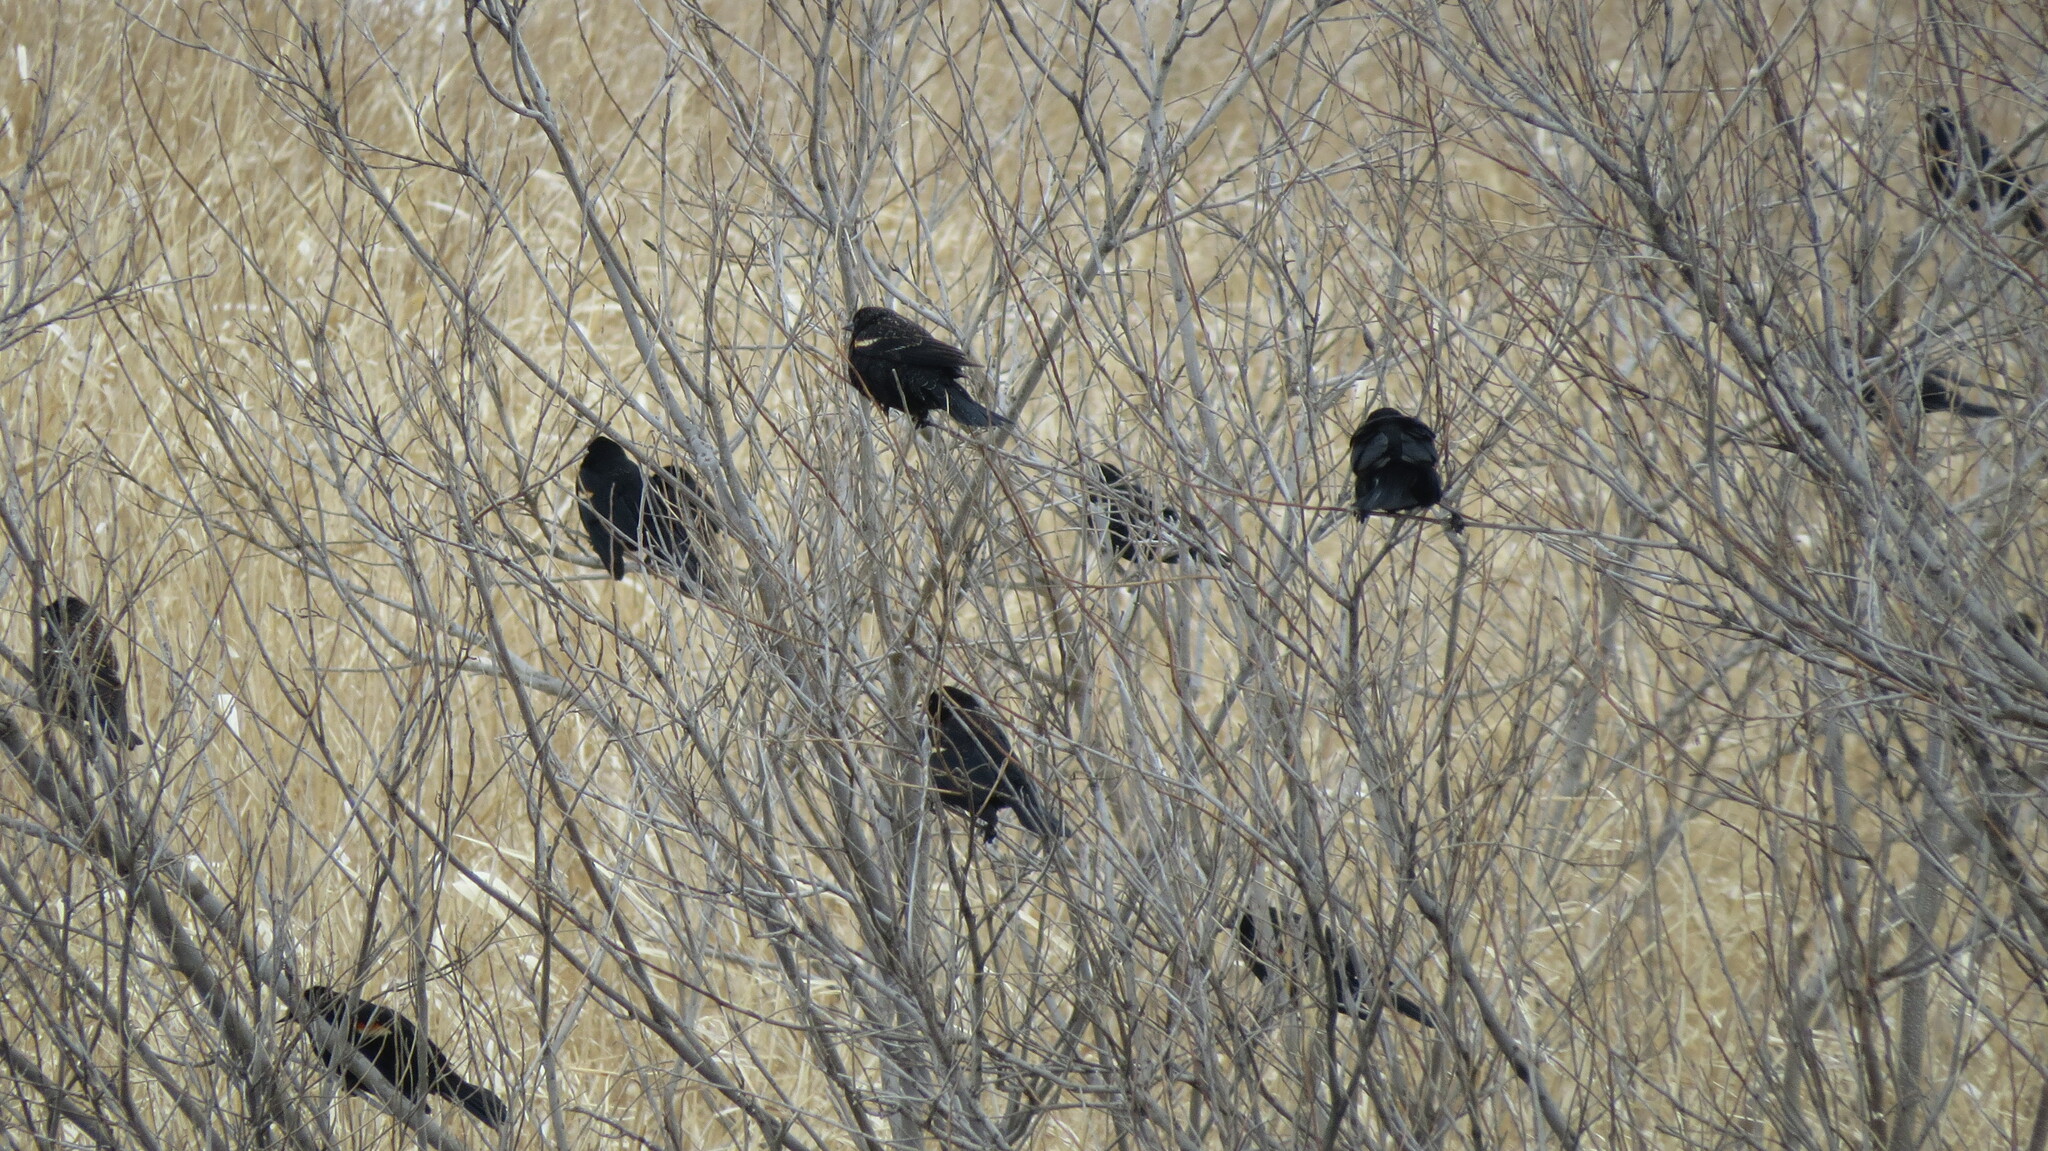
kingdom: Animalia
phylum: Chordata
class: Aves
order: Passeriformes
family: Icteridae
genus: Agelaius
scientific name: Agelaius phoeniceus
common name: Red-winged blackbird
